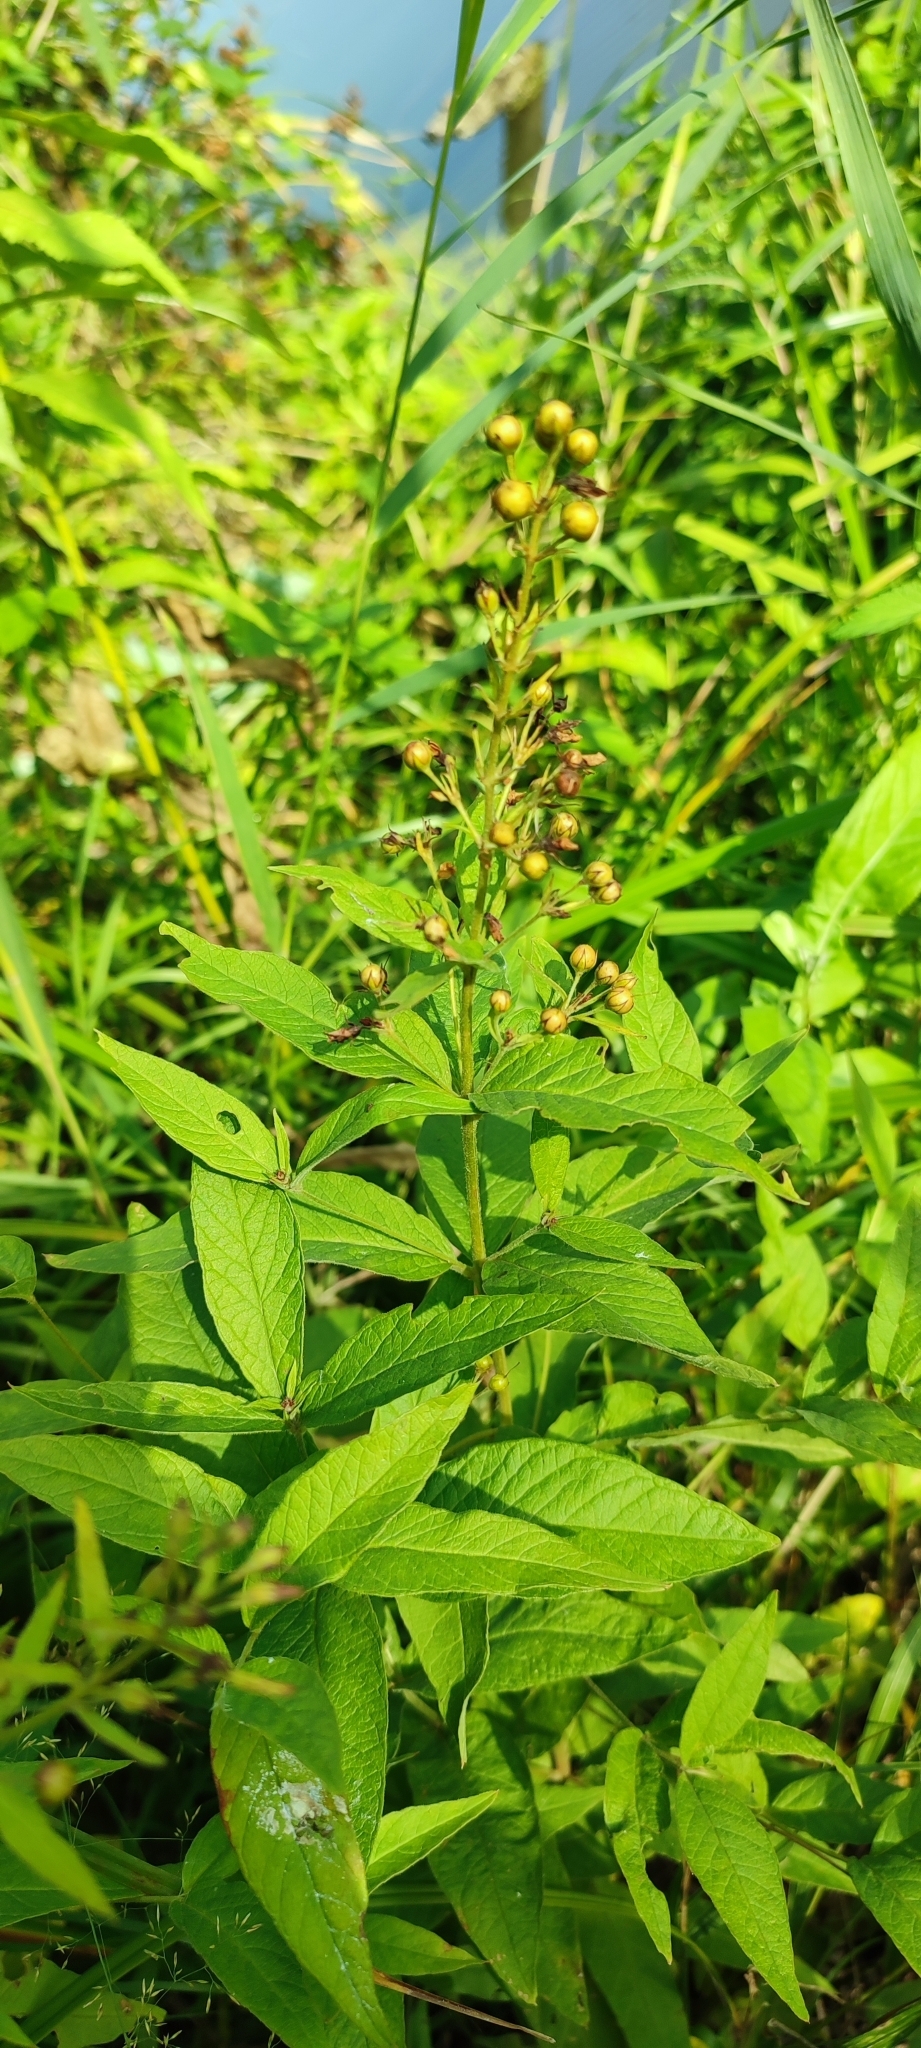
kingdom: Plantae
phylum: Tracheophyta
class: Magnoliopsida
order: Ericales
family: Primulaceae
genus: Lysimachia
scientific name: Lysimachia vulgaris
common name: Yellow loosestrife
